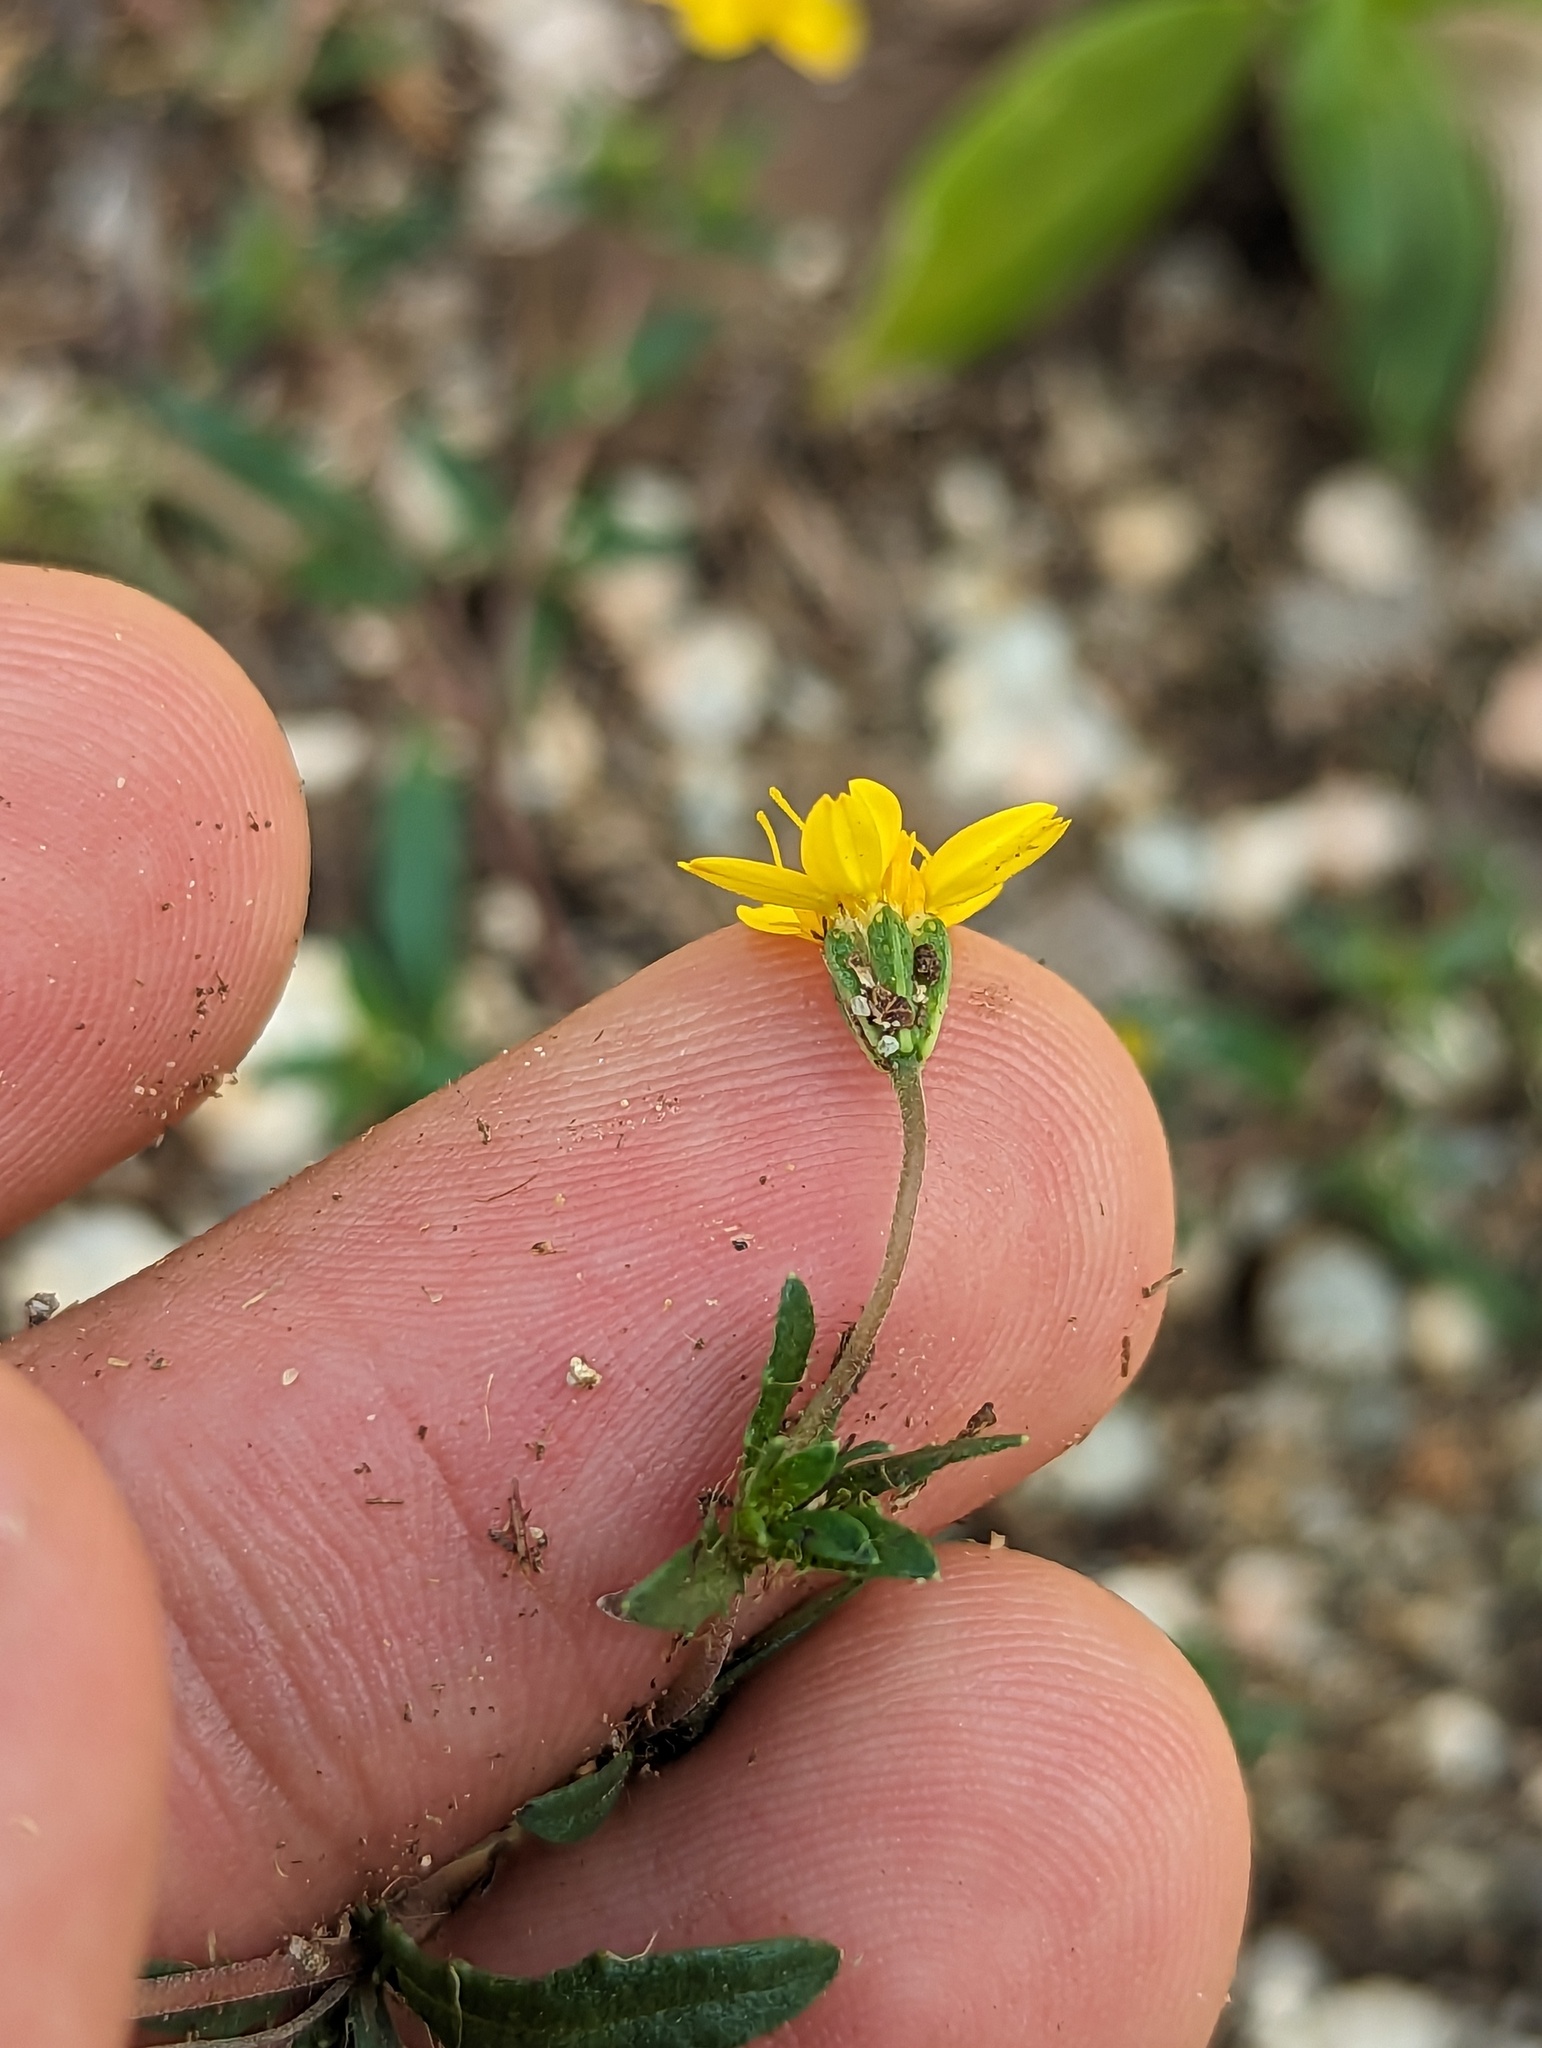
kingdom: Plantae
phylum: Tracheophyta
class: Magnoliopsida
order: Asterales
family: Asteraceae
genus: Pectis
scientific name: Pectis multiseta
